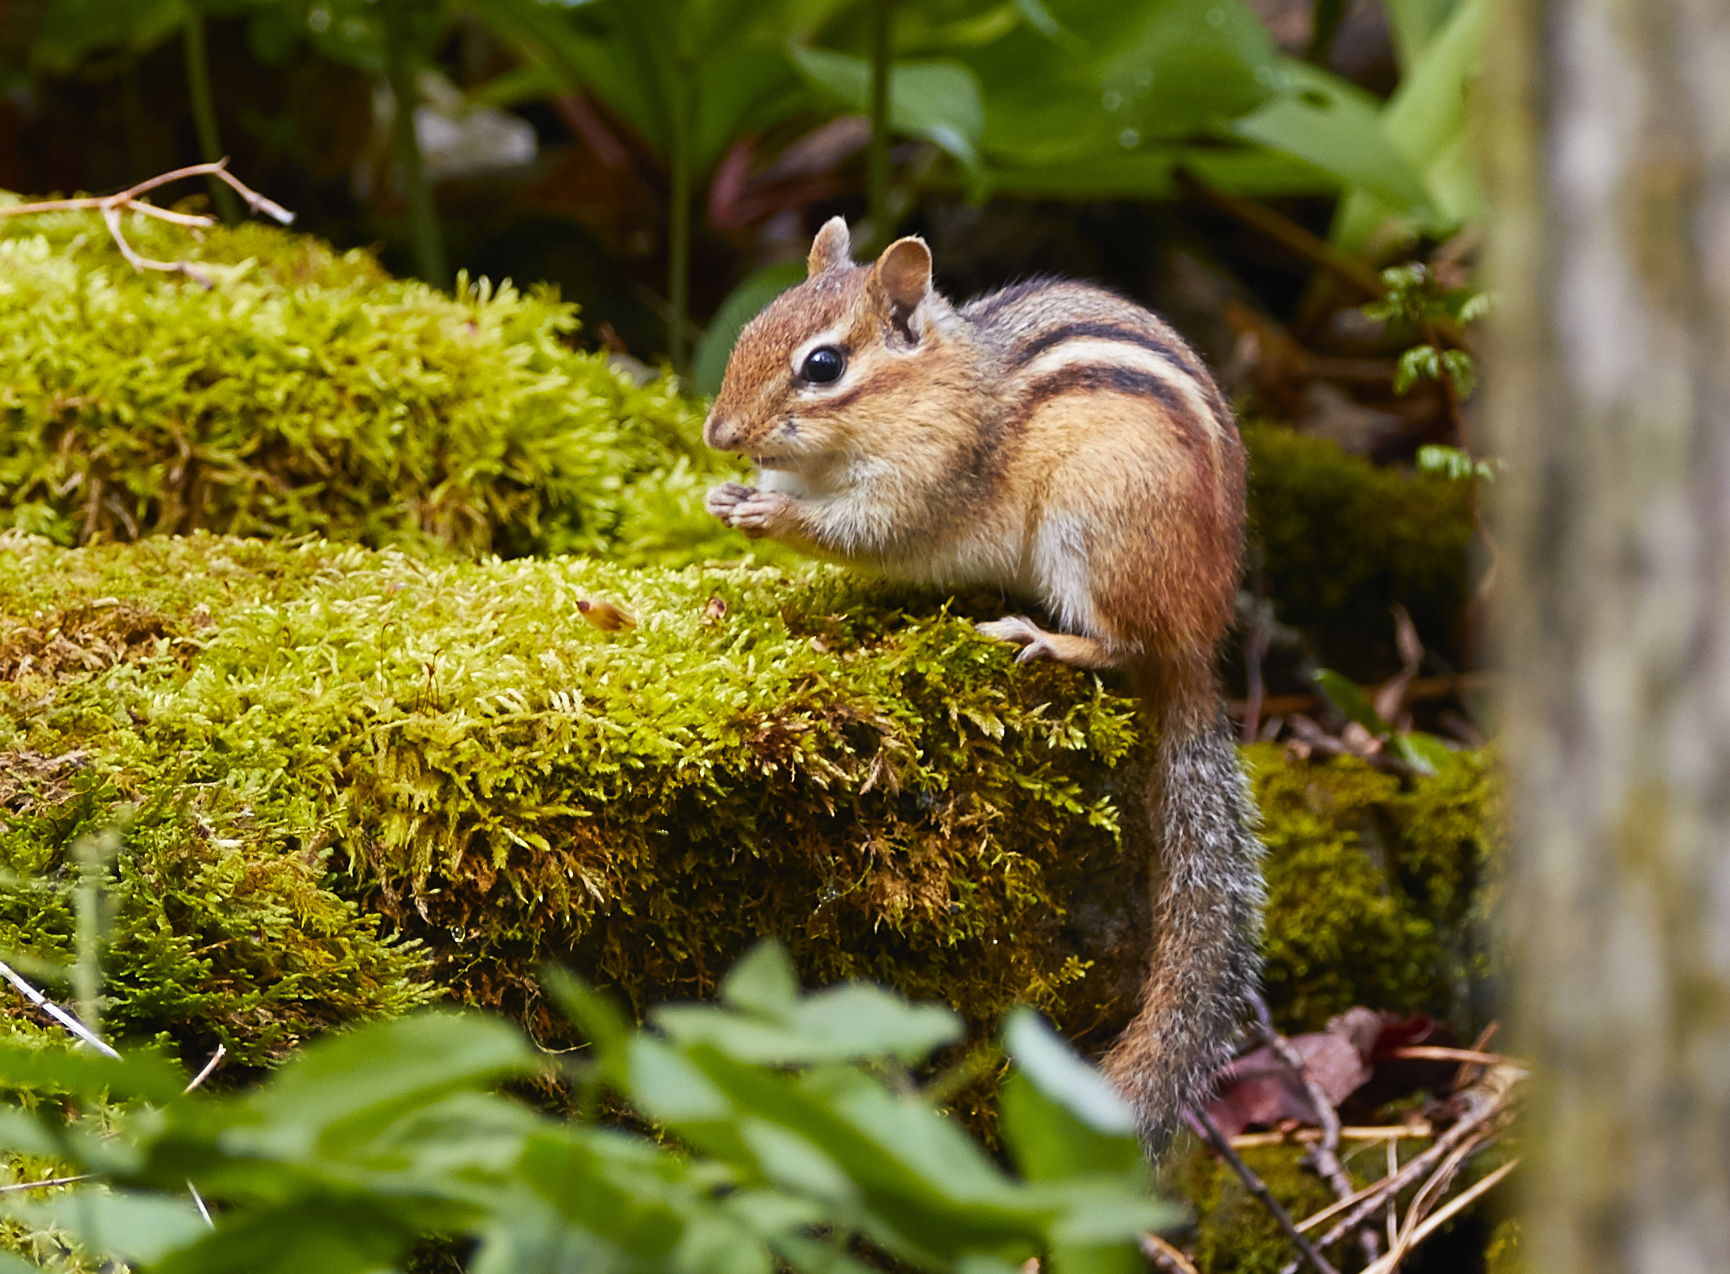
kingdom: Animalia
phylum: Chordata
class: Mammalia
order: Rodentia
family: Sciuridae
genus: Tamias
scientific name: Tamias striatus
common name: Eastern chipmunk
